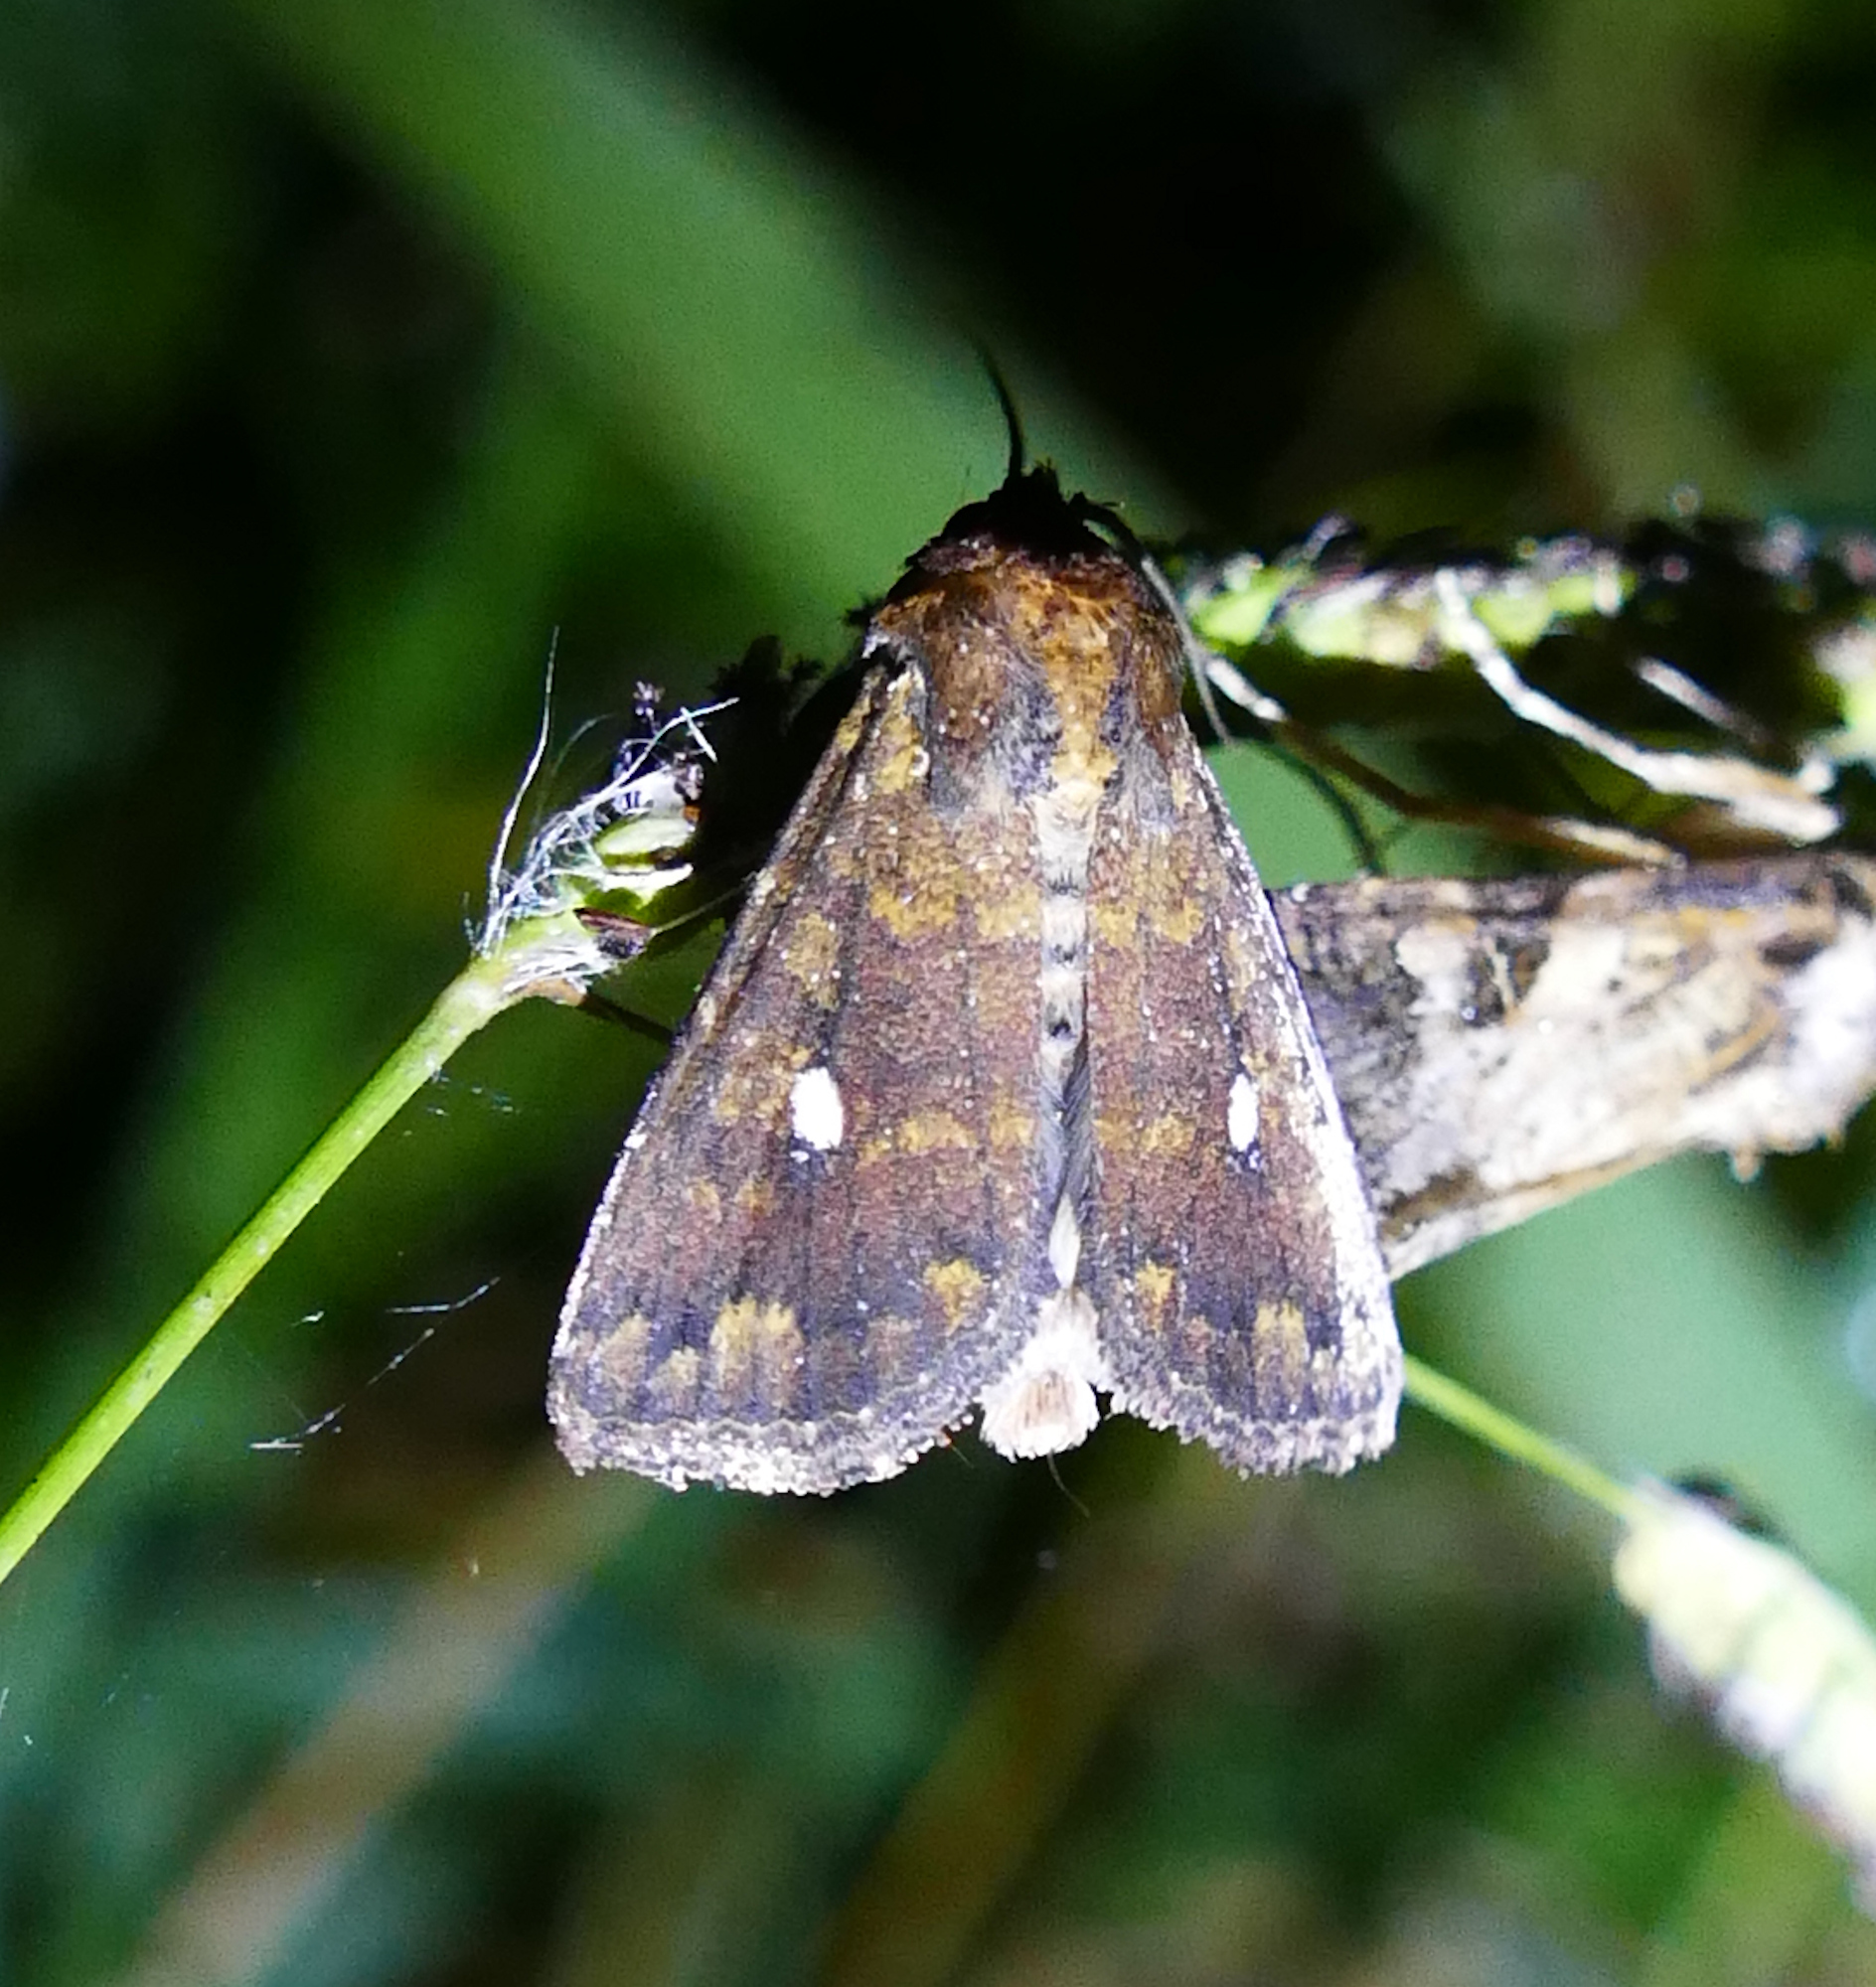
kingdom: Animalia
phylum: Arthropoda
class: Insecta
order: Lepidoptera
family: Noctuidae
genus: Condica
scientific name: Condica mobilis
